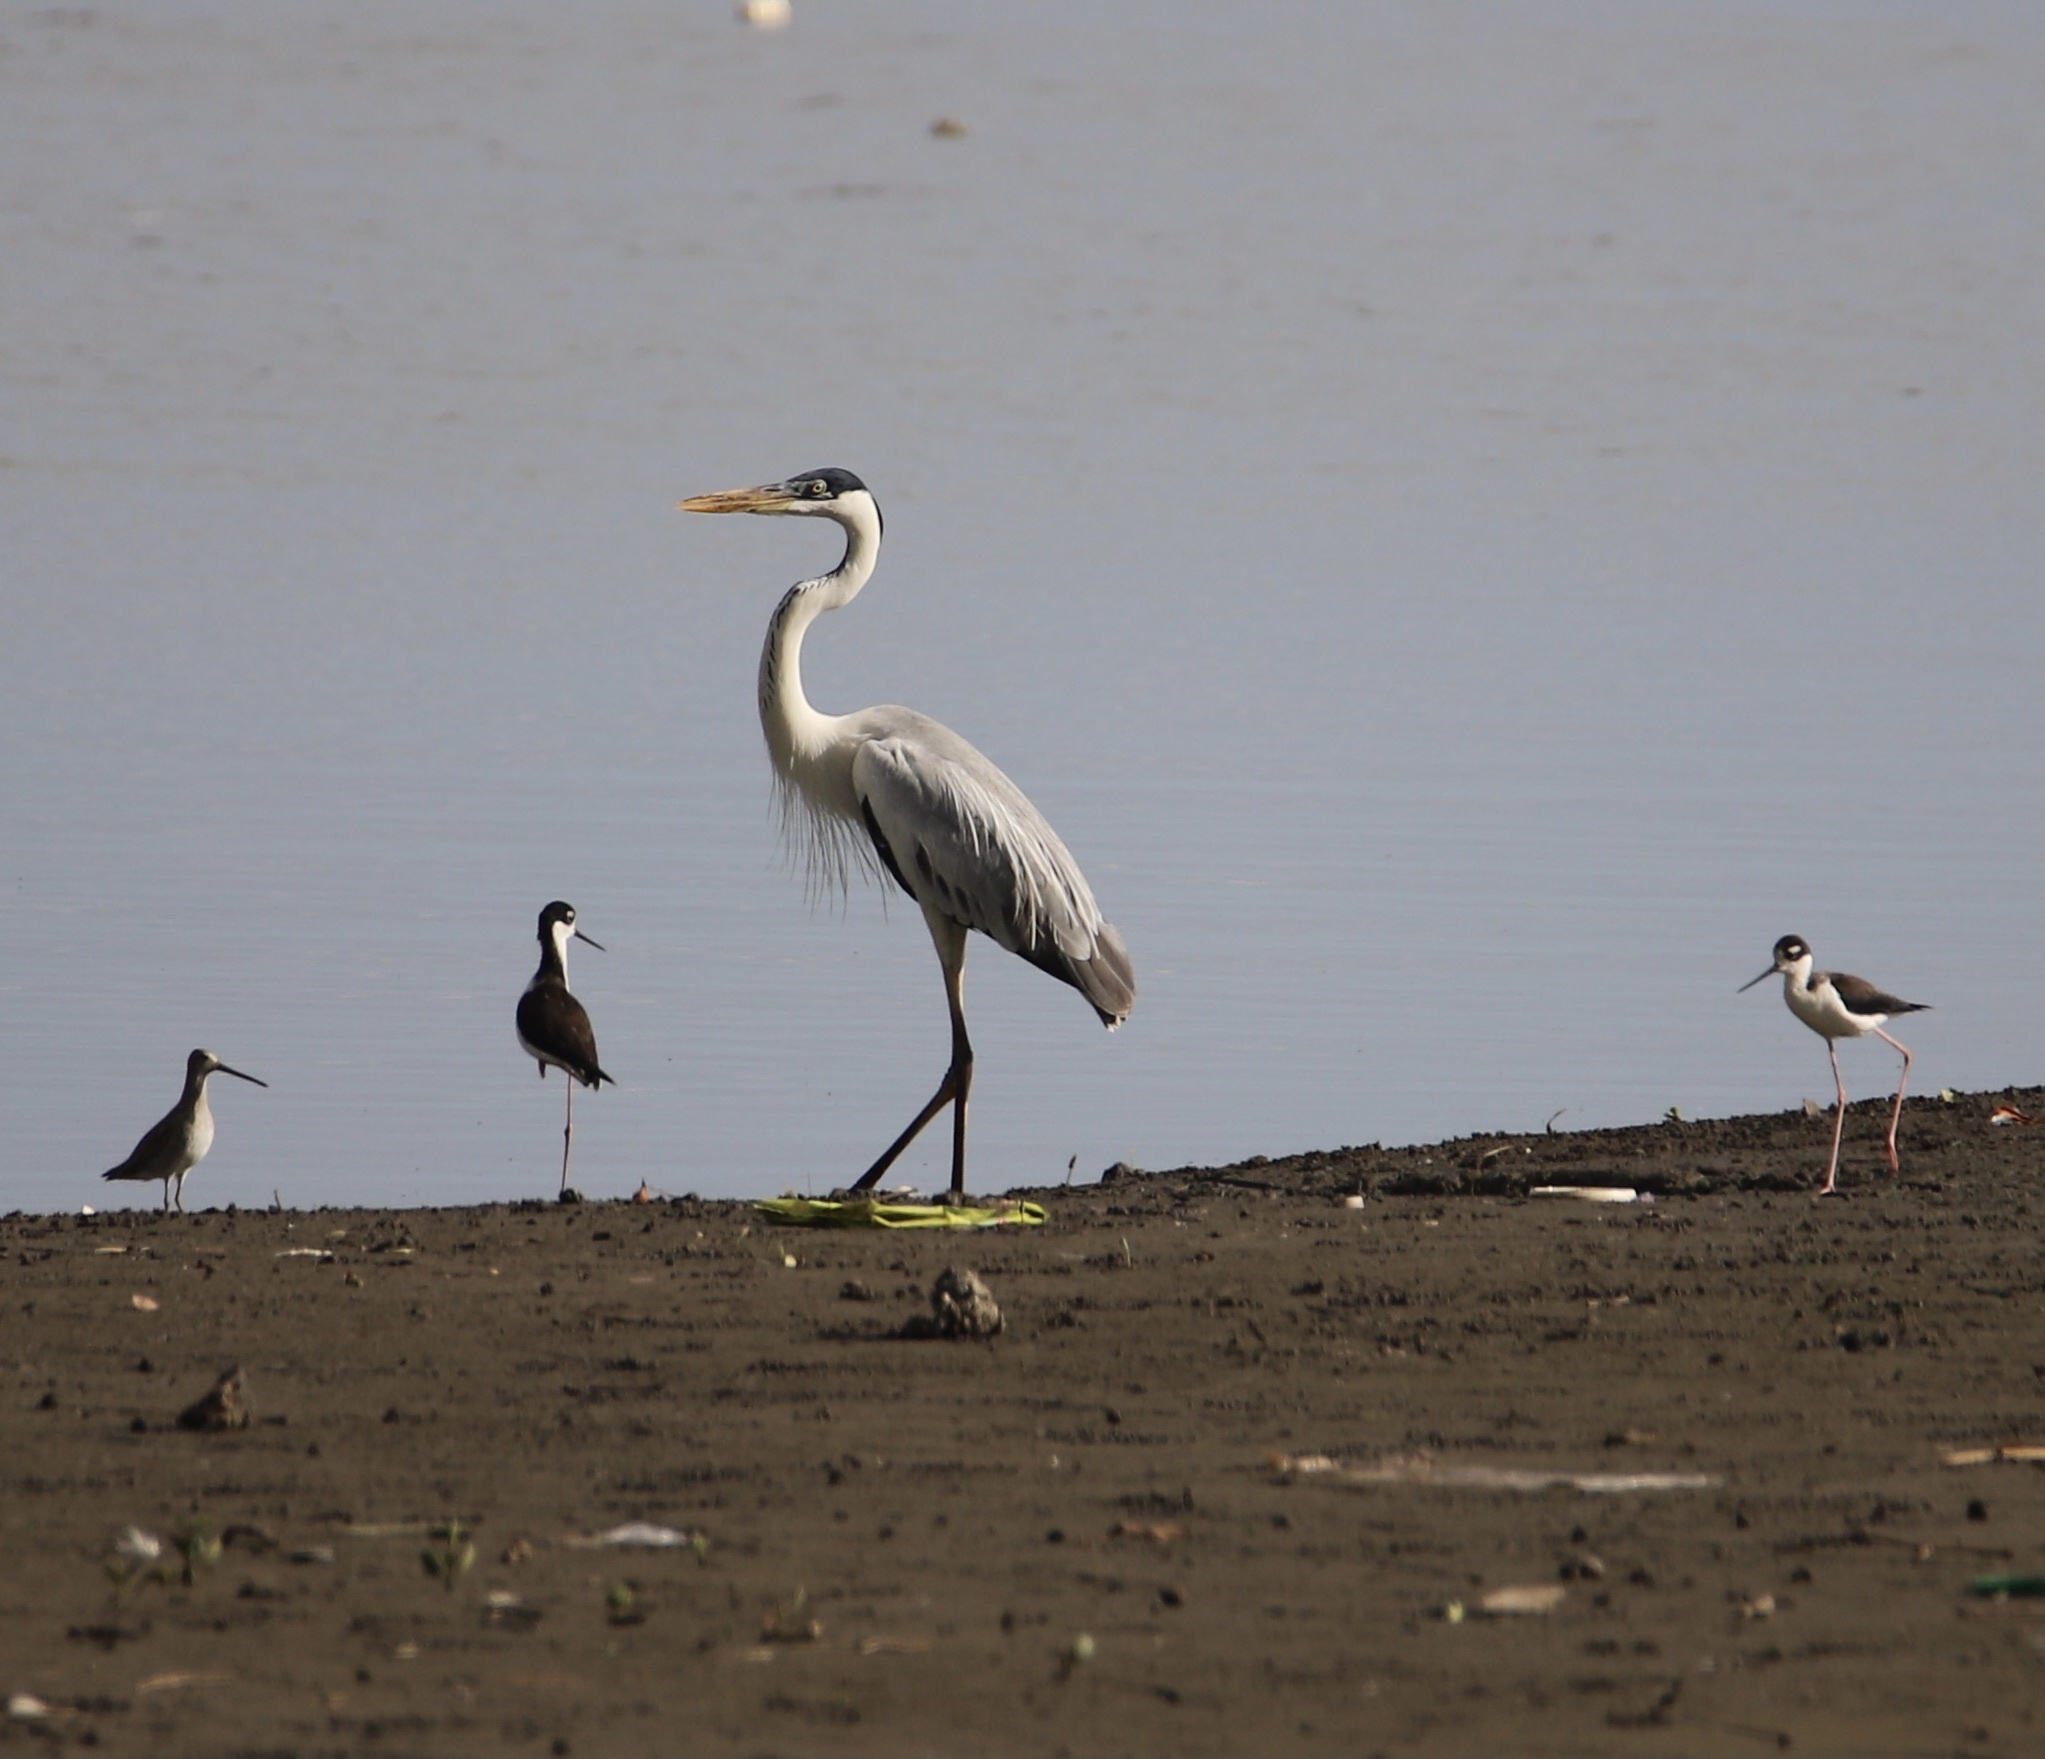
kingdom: Animalia
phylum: Chordata
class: Aves
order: Pelecaniformes
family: Ardeidae
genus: Ardea
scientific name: Ardea cocoi
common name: Cocoi heron
